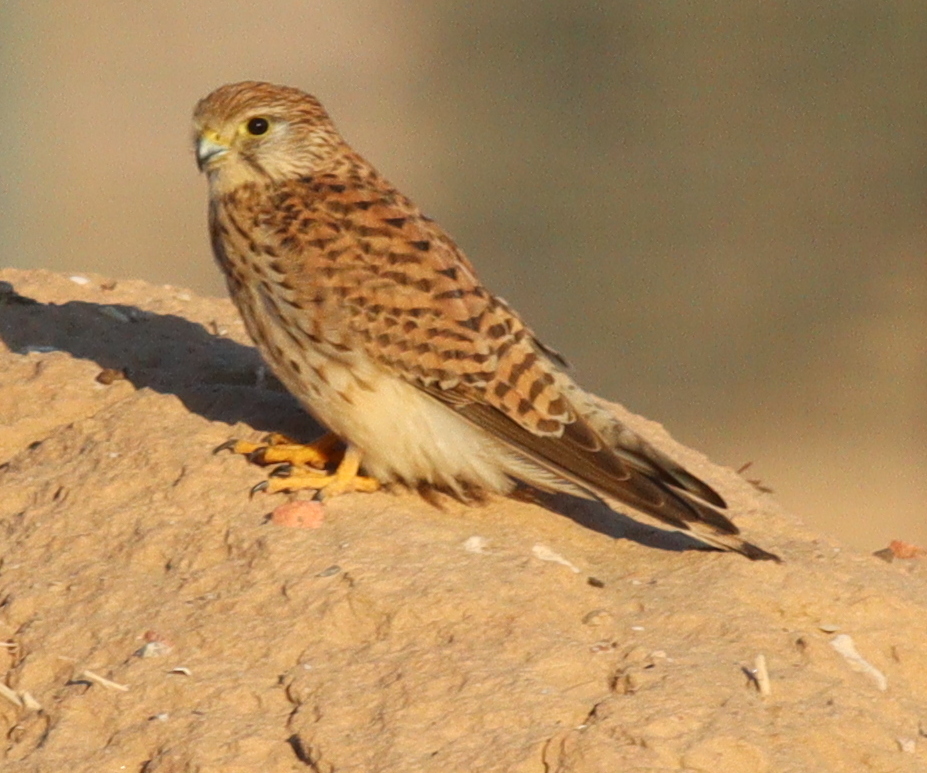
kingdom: Animalia
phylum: Chordata
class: Aves
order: Falconiformes
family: Falconidae
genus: Falco
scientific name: Falco tinnunculus
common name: Common kestrel
